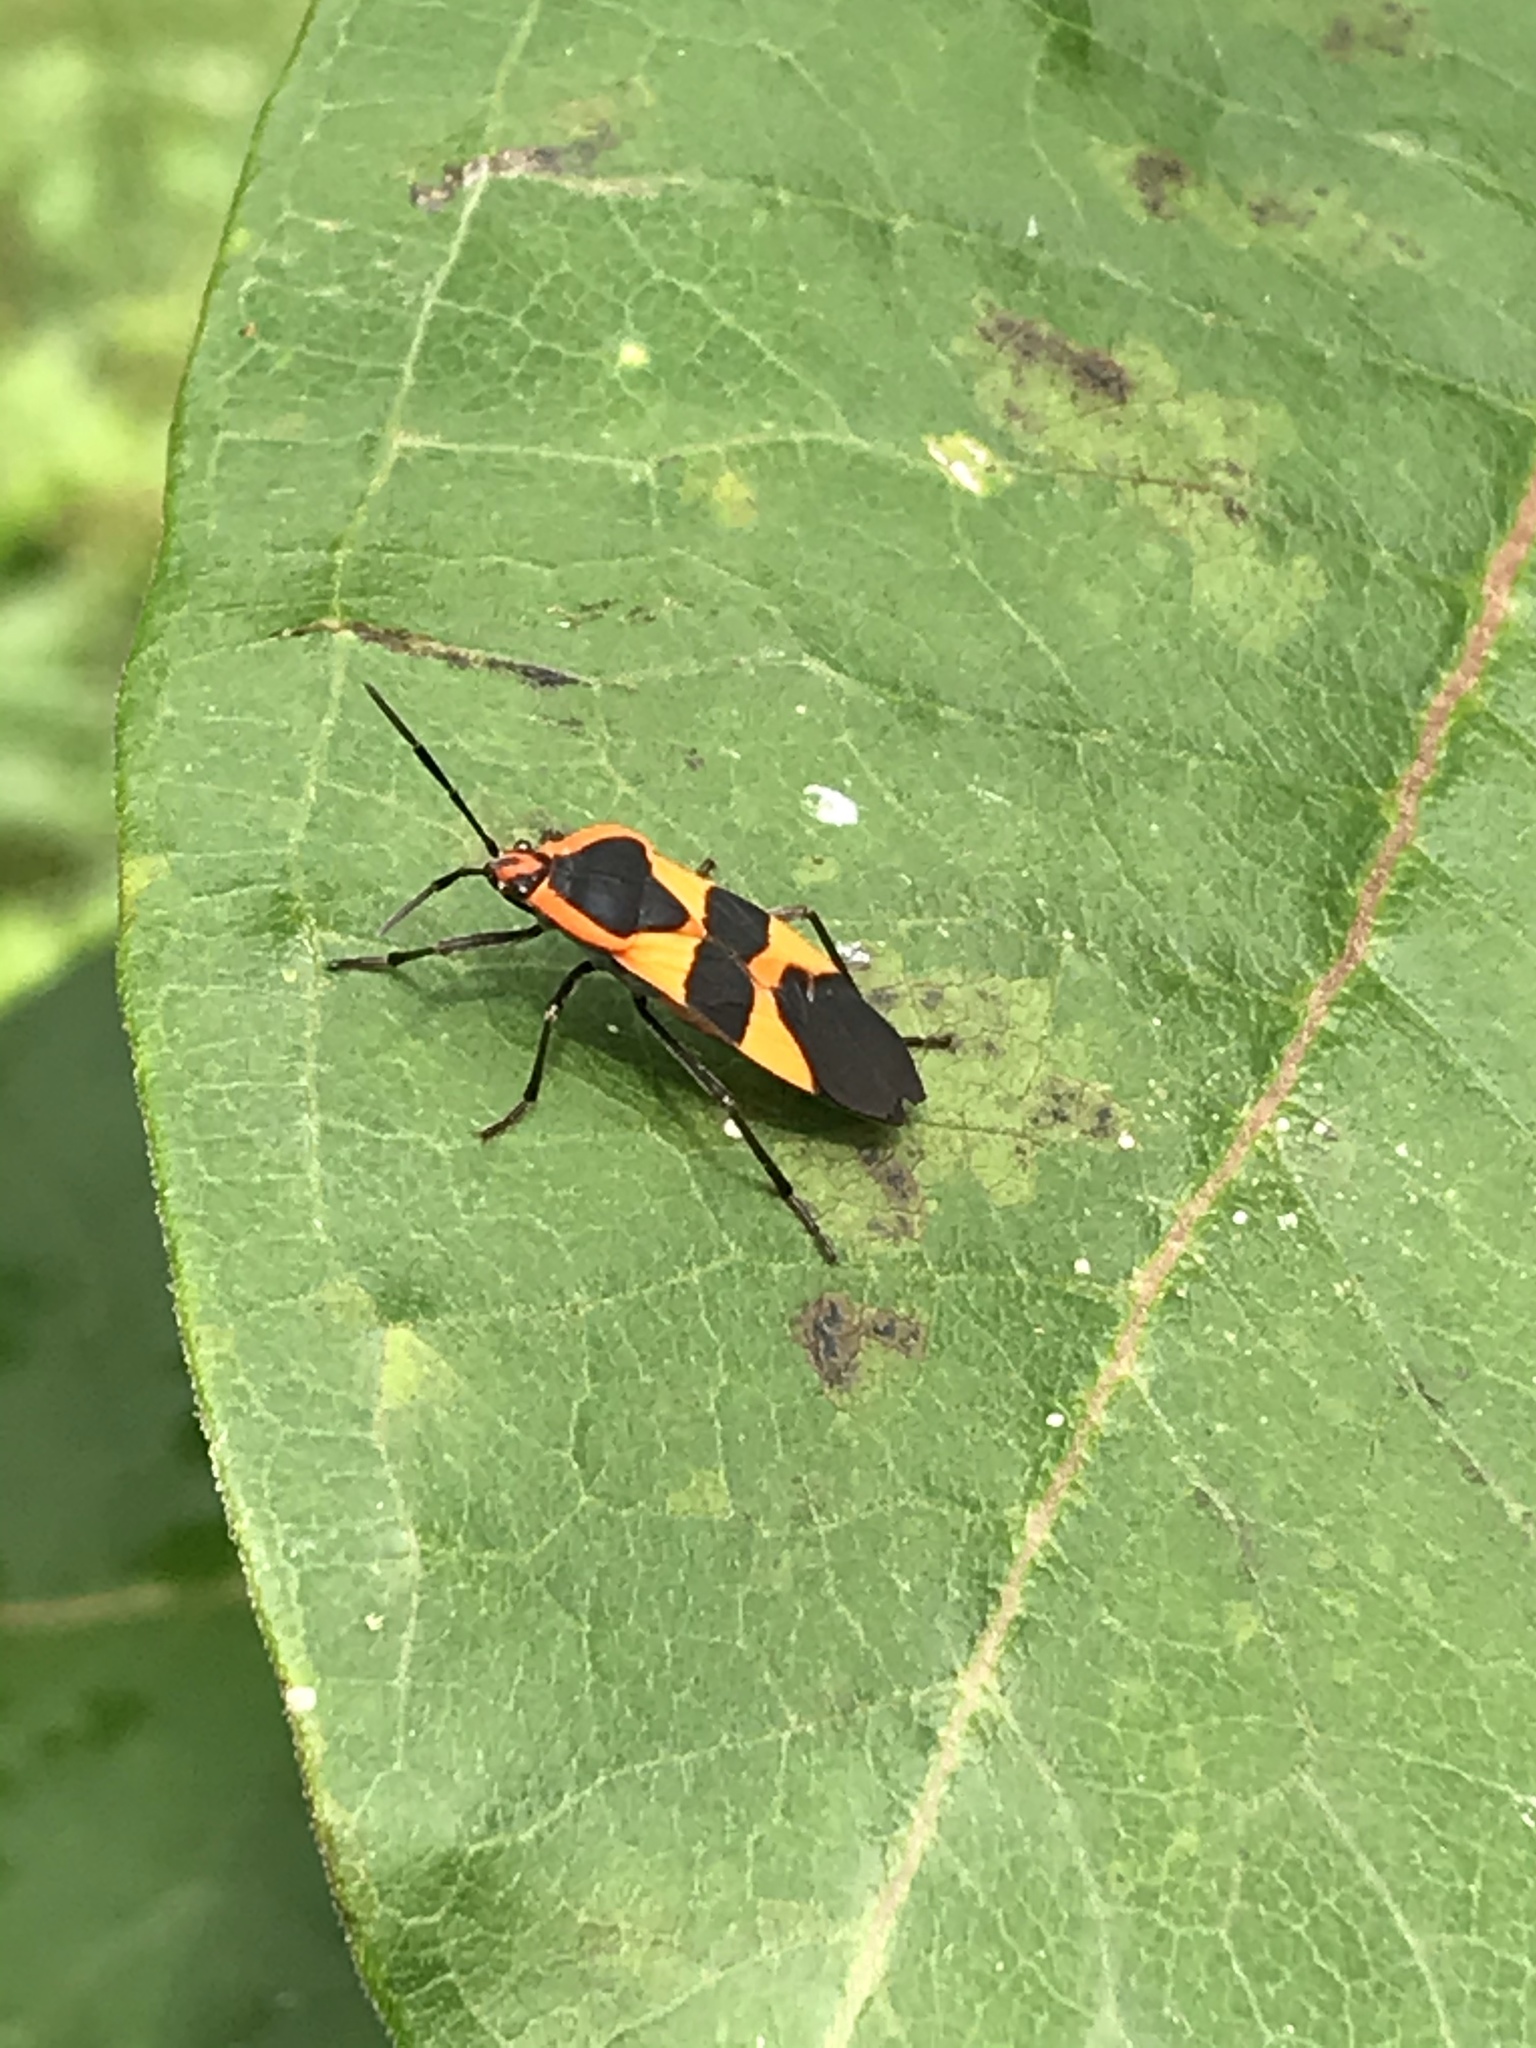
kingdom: Animalia
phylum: Arthropoda
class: Insecta
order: Hemiptera
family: Lygaeidae
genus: Oncopeltus
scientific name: Oncopeltus fasciatus
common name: Large milkweed bug
